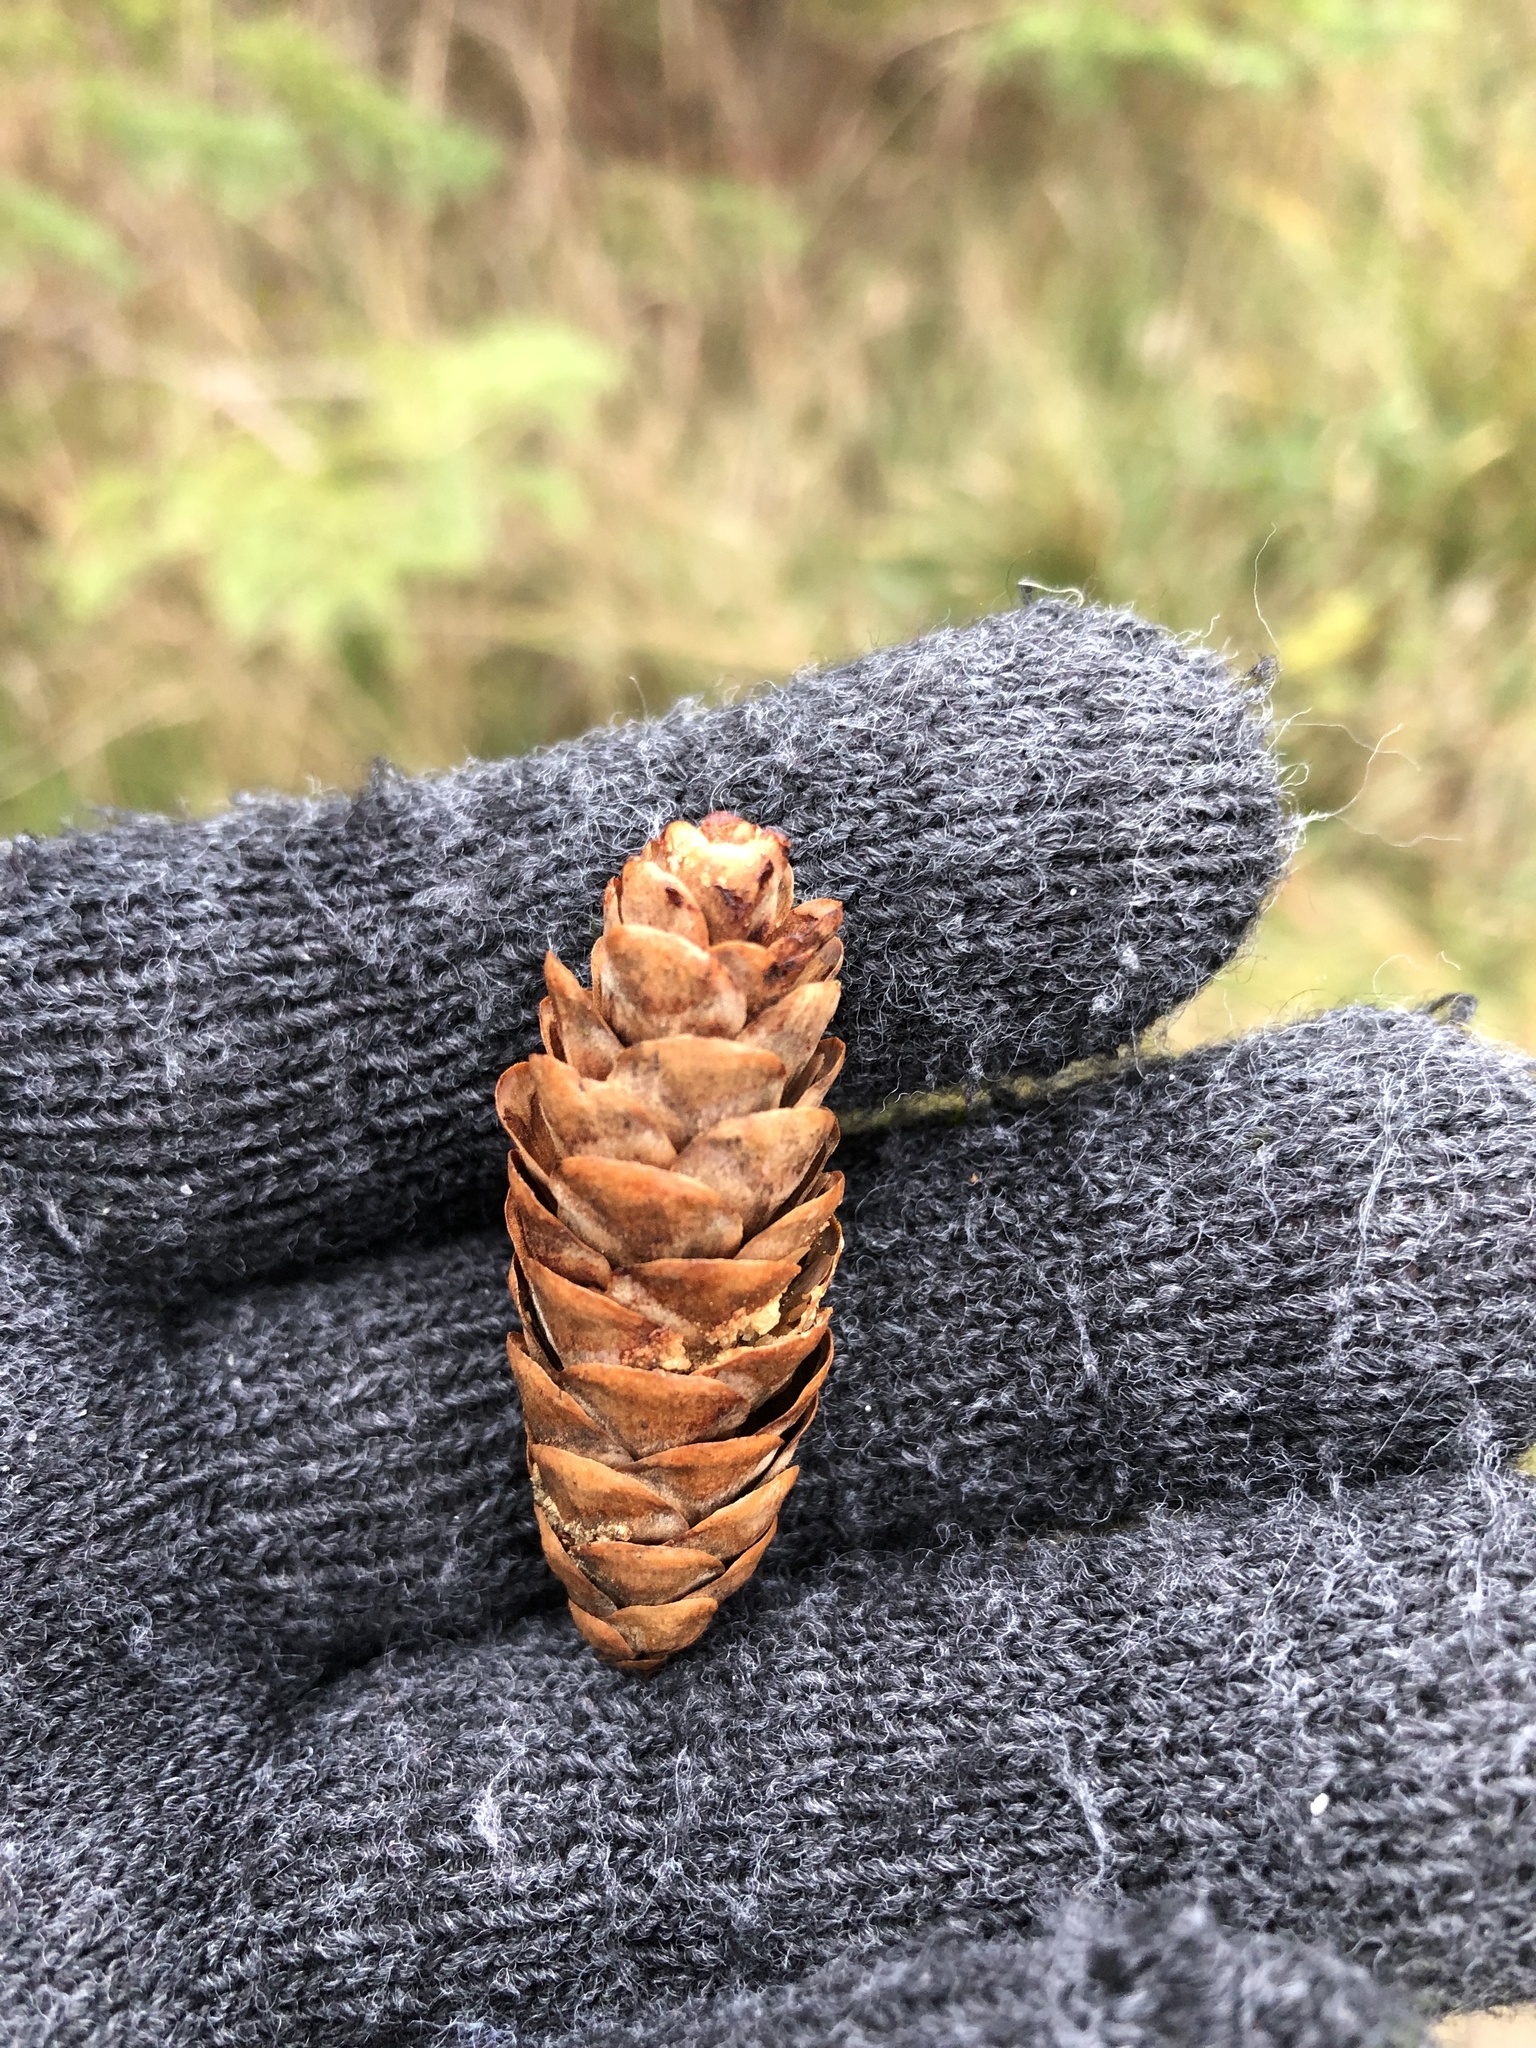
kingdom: Plantae
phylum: Tracheophyta
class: Pinopsida
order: Pinales
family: Pinaceae
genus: Picea
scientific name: Picea glauca
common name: White spruce
